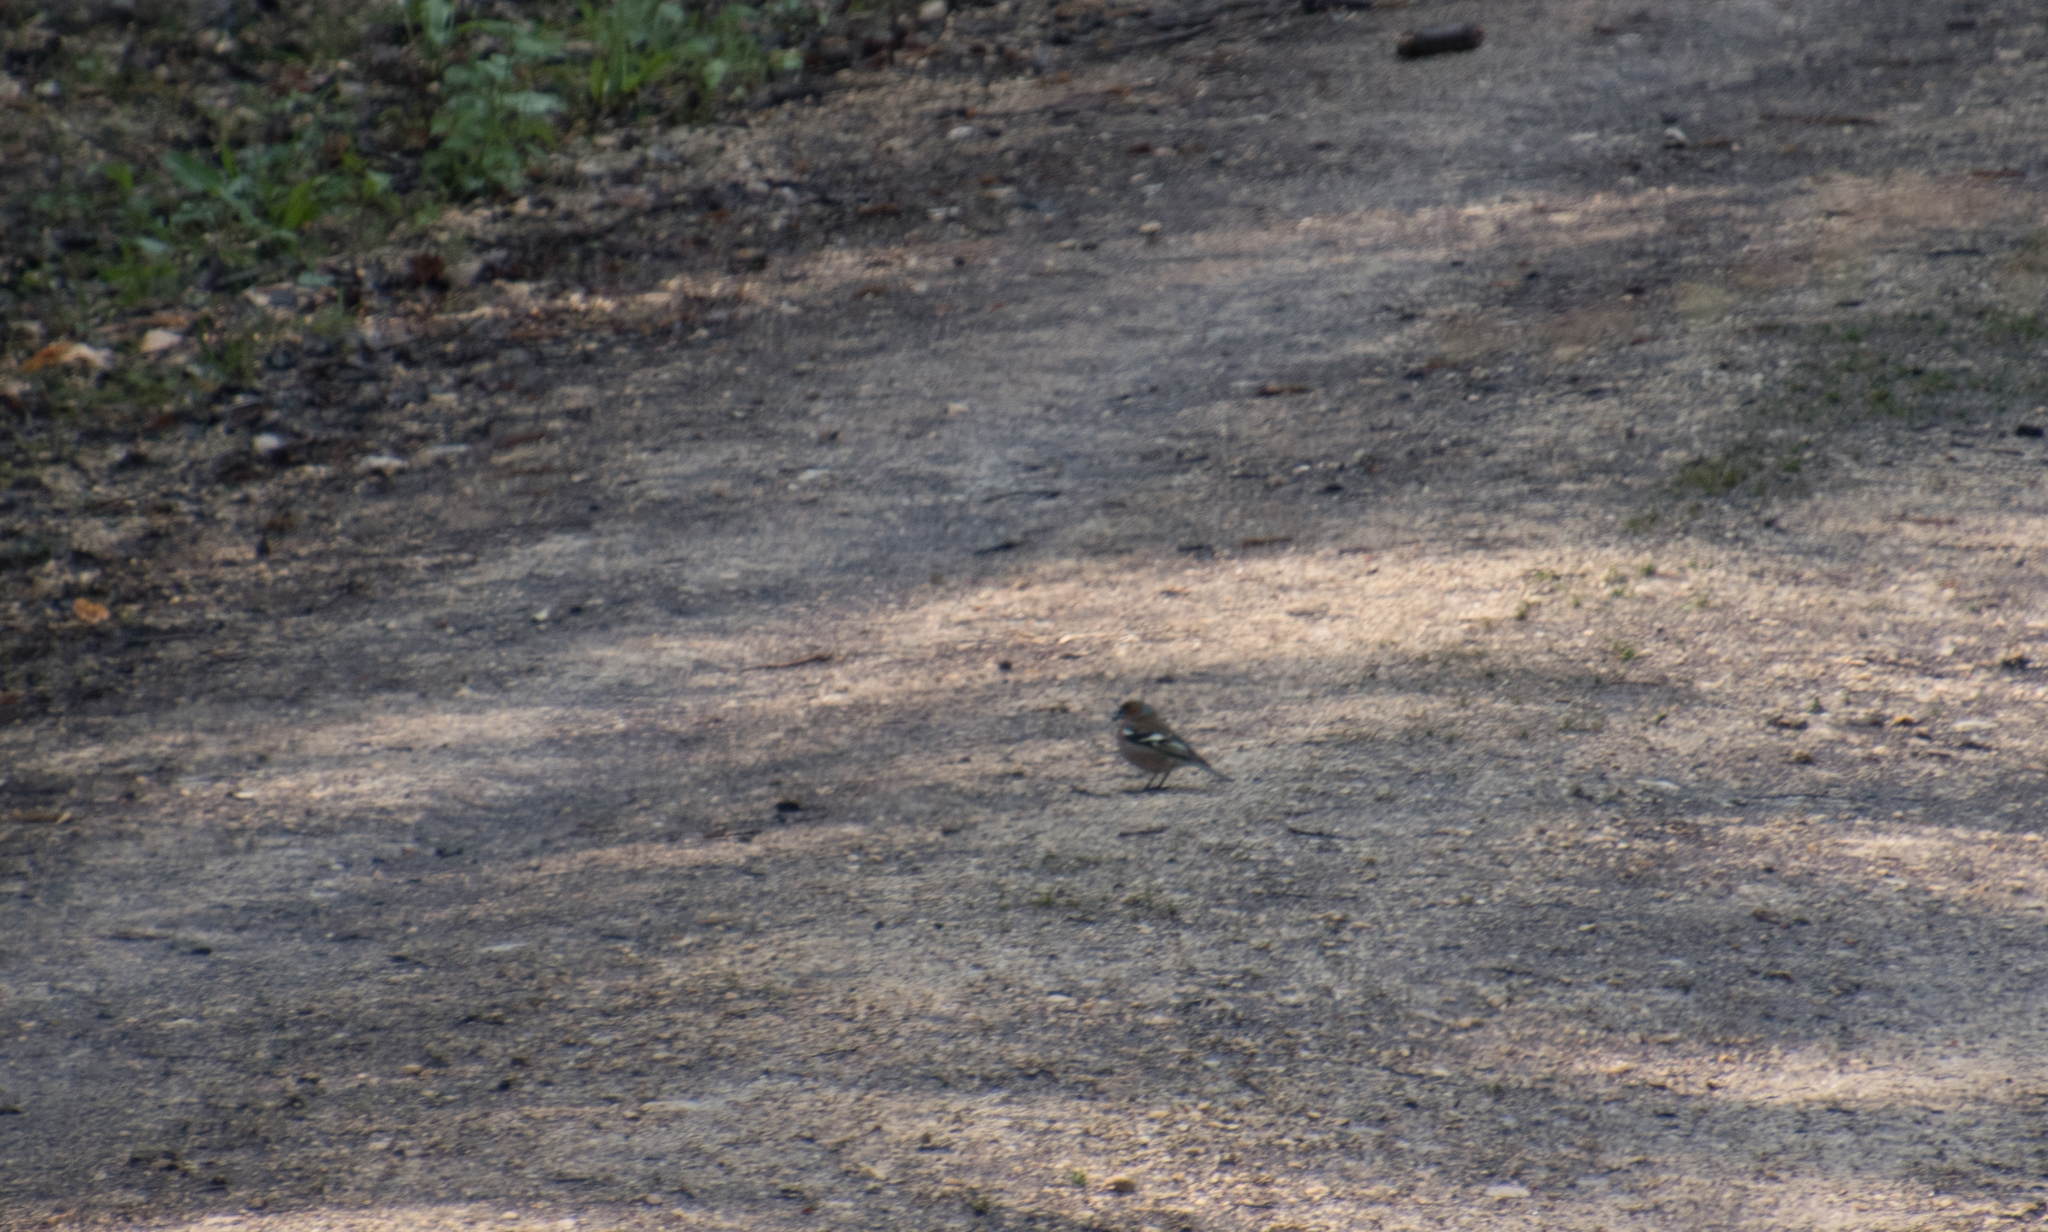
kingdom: Animalia
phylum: Chordata
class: Aves
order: Passeriformes
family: Fringillidae
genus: Fringilla
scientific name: Fringilla coelebs
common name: Common chaffinch
